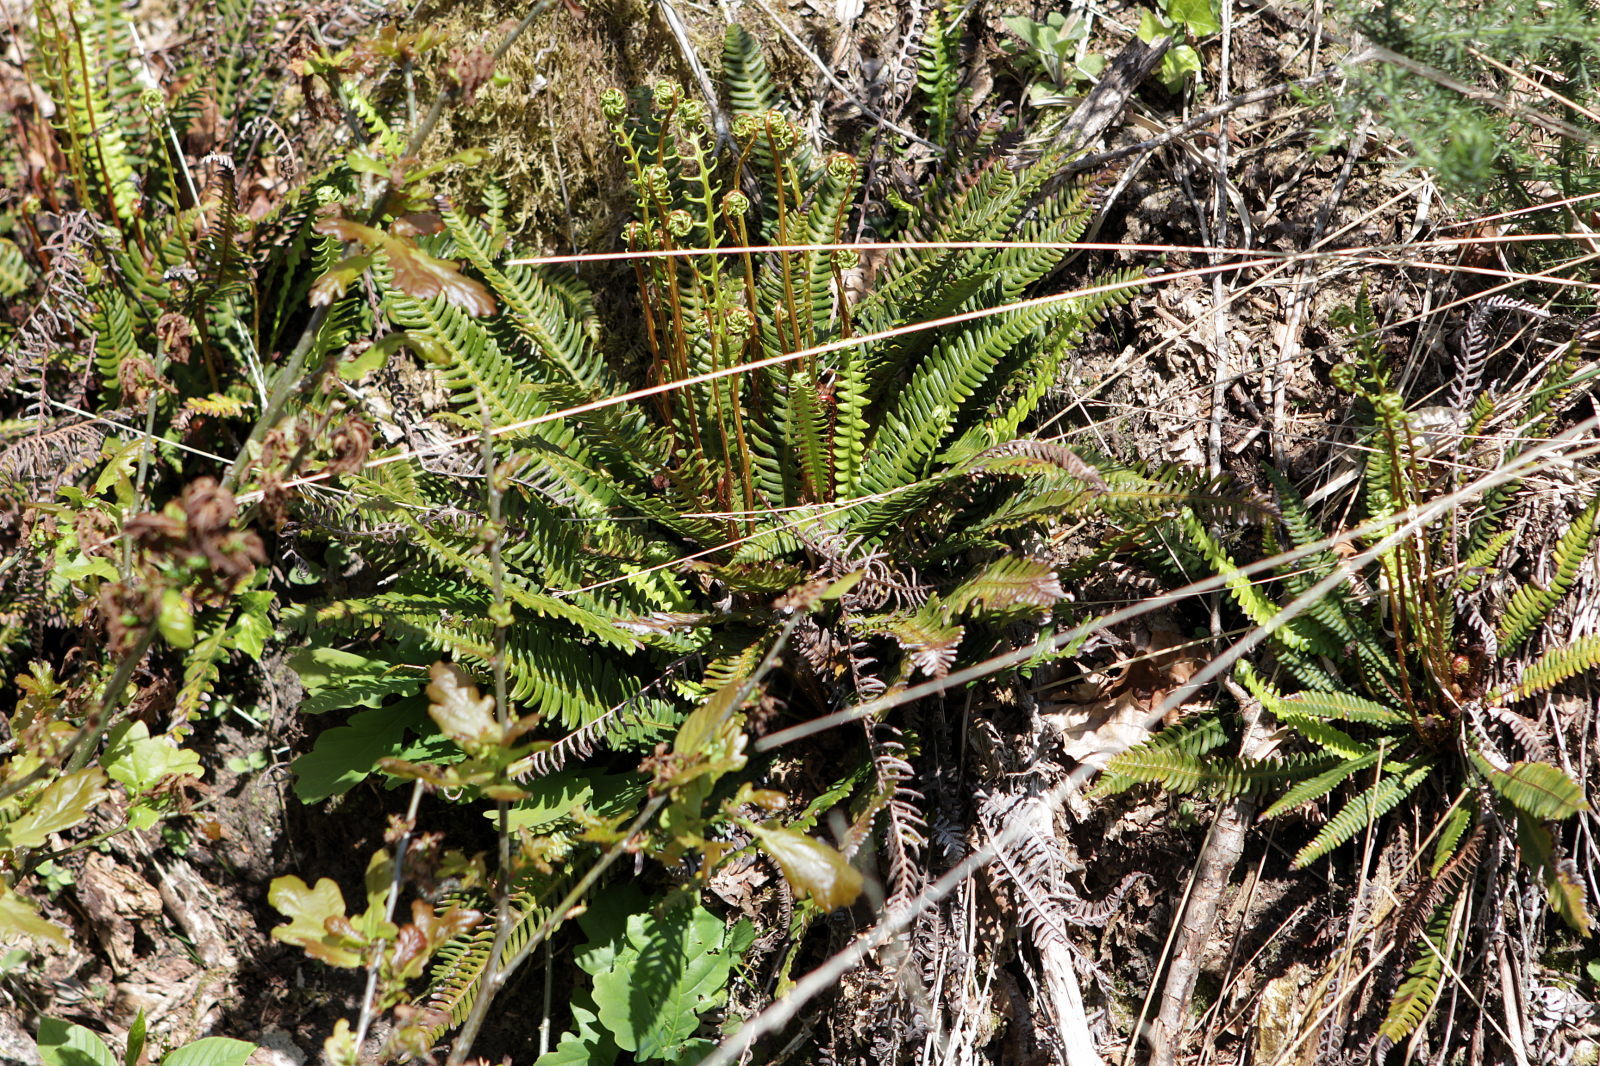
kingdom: Plantae
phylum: Tracheophyta
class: Polypodiopsida
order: Polypodiales
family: Blechnaceae
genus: Struthiopteris
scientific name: Struthiopteris spicant
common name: Deer fern
